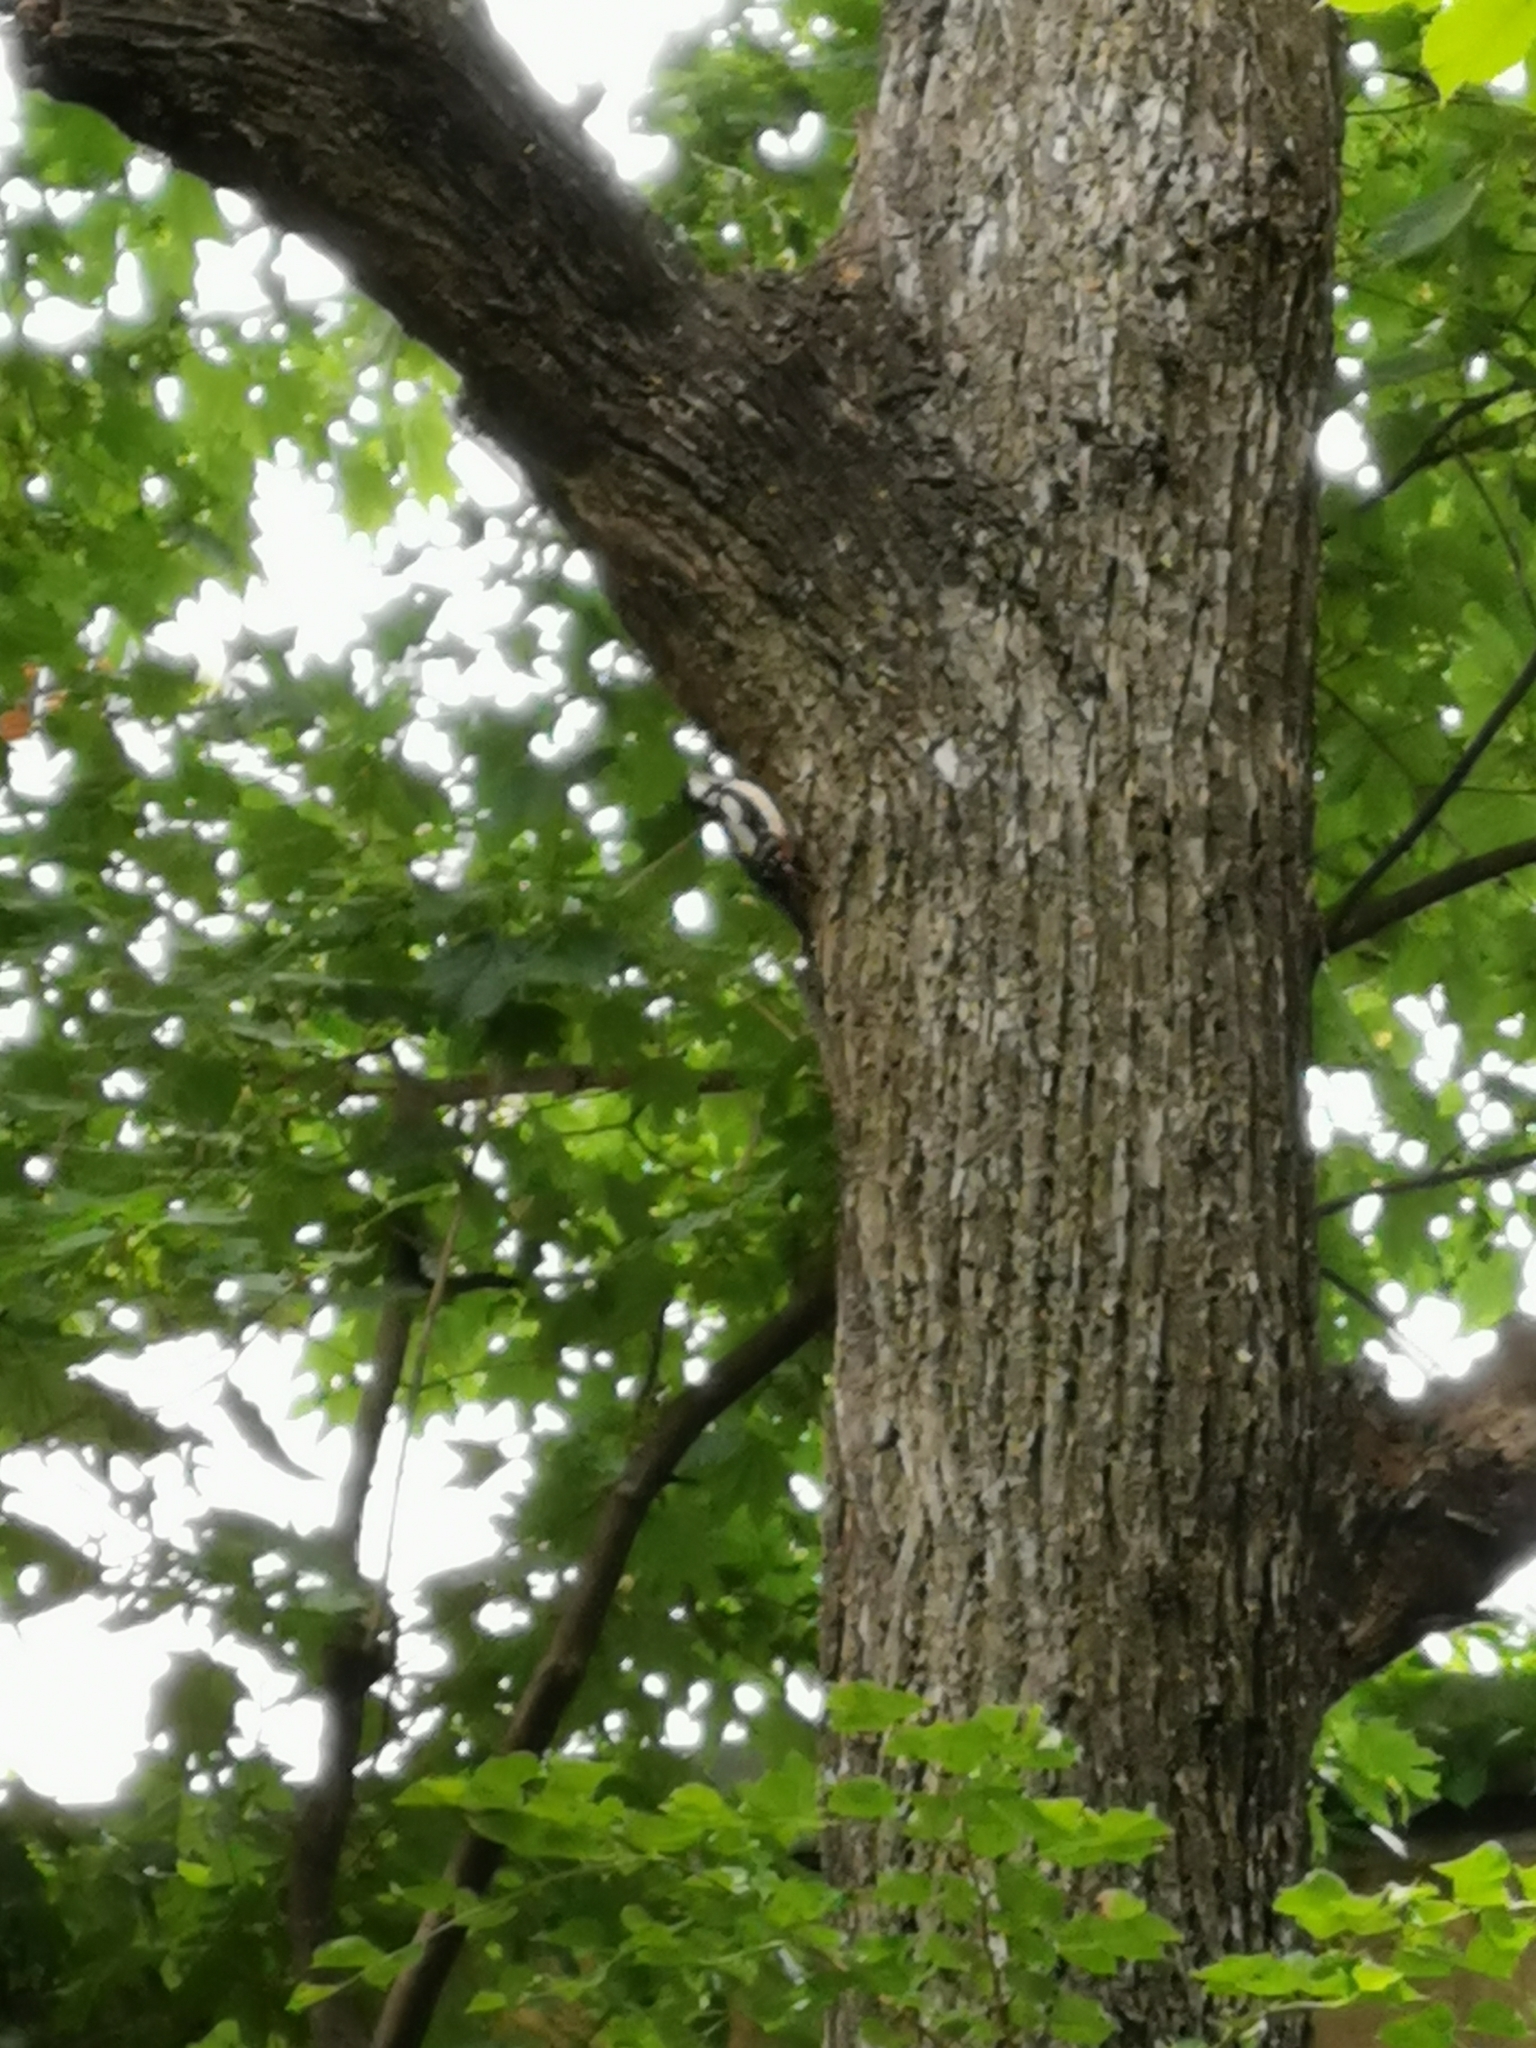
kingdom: Animalia
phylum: Chordata
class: Aves
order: Piciformes
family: Picidae
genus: Dendrocopos
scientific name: Dendrocopos major
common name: Great spotted woodpecker
